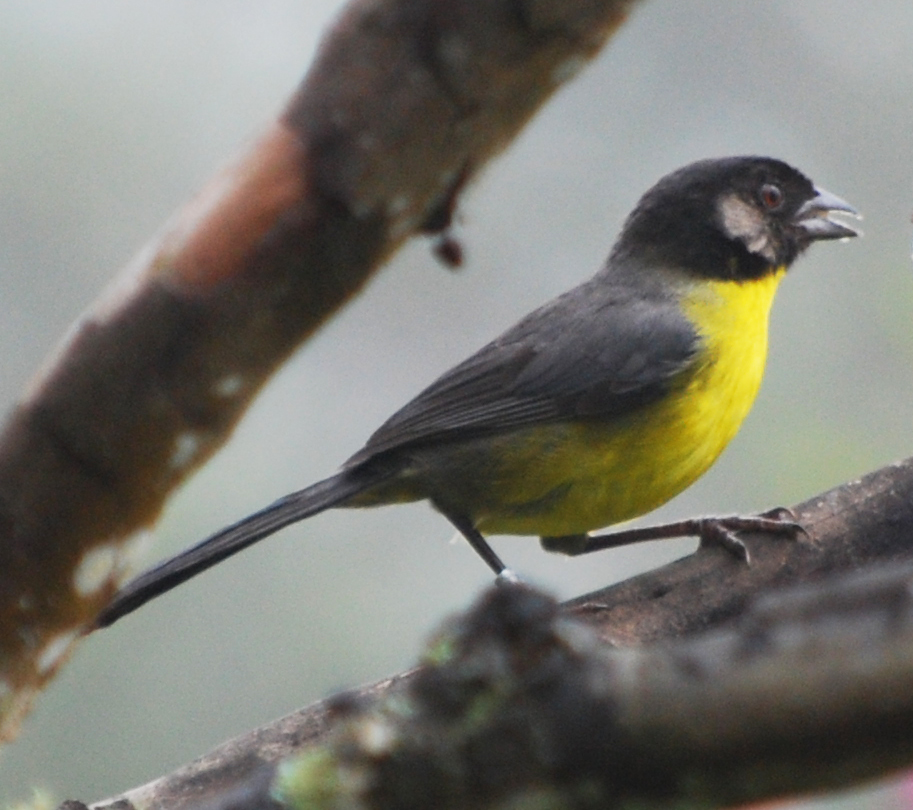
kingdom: Animalia
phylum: Chordata
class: Aves
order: Passeriformes
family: Passerellidae
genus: Atlapetes
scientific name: Atlapetes melanocephalus
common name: Santa marta brush-finch
